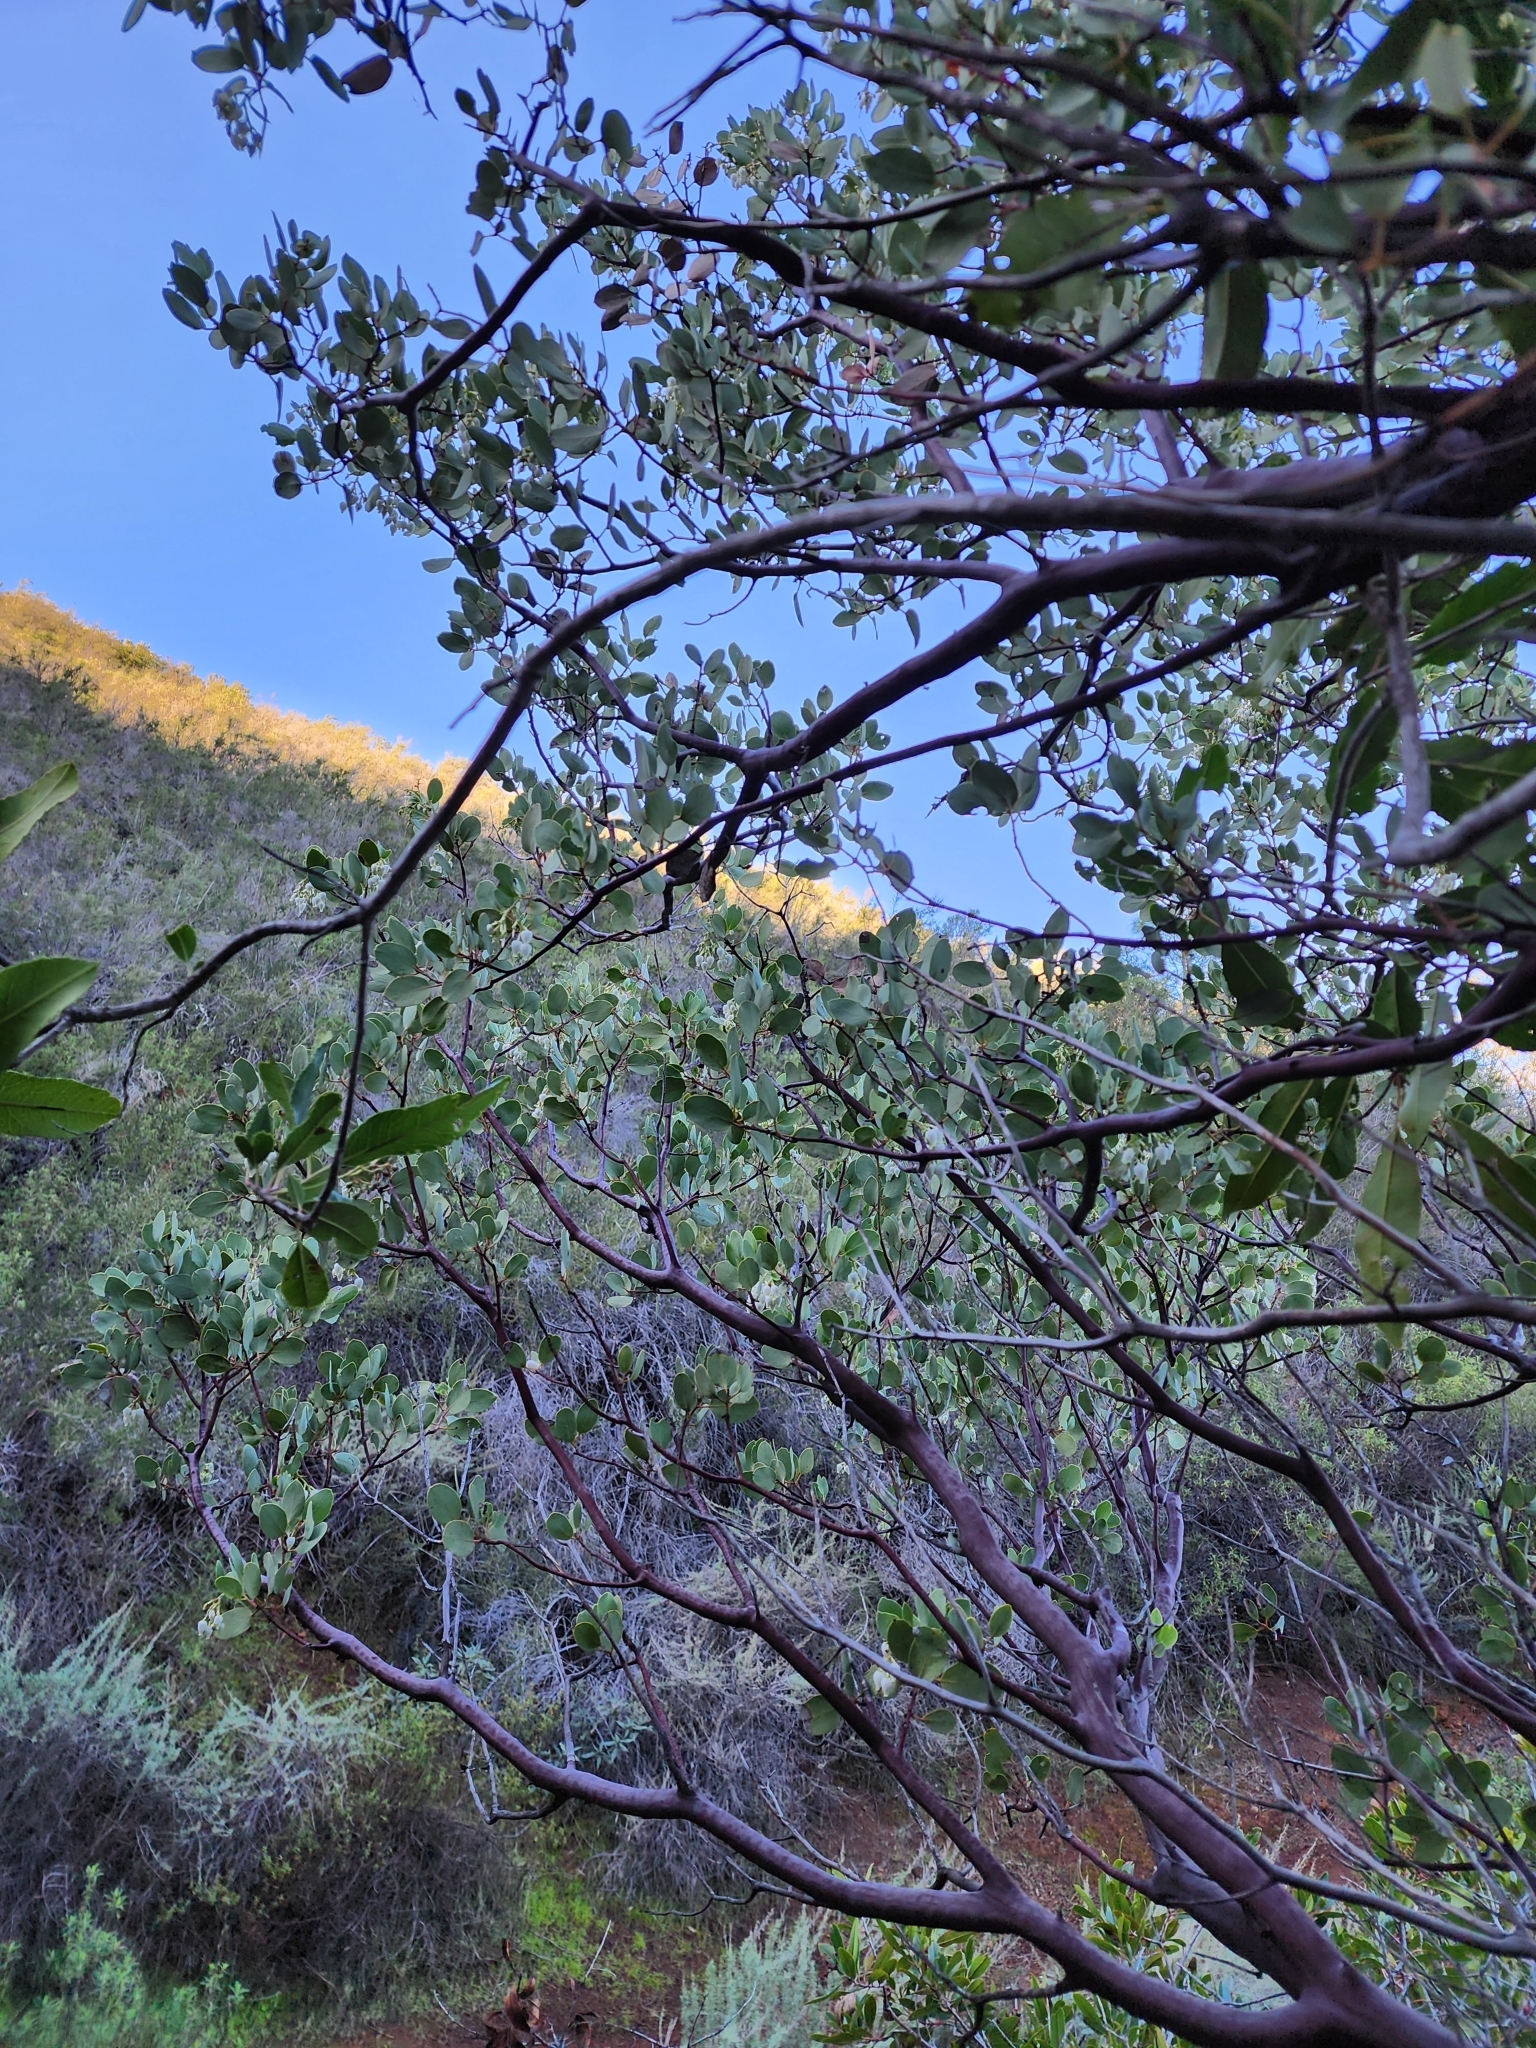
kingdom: Plantae
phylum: Tracheophyta
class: Magnoliopsida
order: Ericales
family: Ericaceae
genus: Arctostaphylos
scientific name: Arctostaphylos glauca
